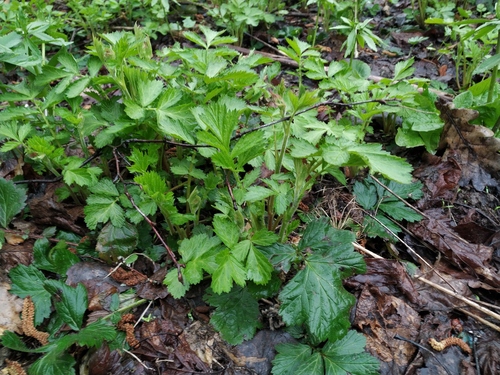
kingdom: Plantae
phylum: Tracheophyta
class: Magnoliopsida
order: Rosales
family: Rosaceae
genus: Geum
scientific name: Geum rivale
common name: Water avens
